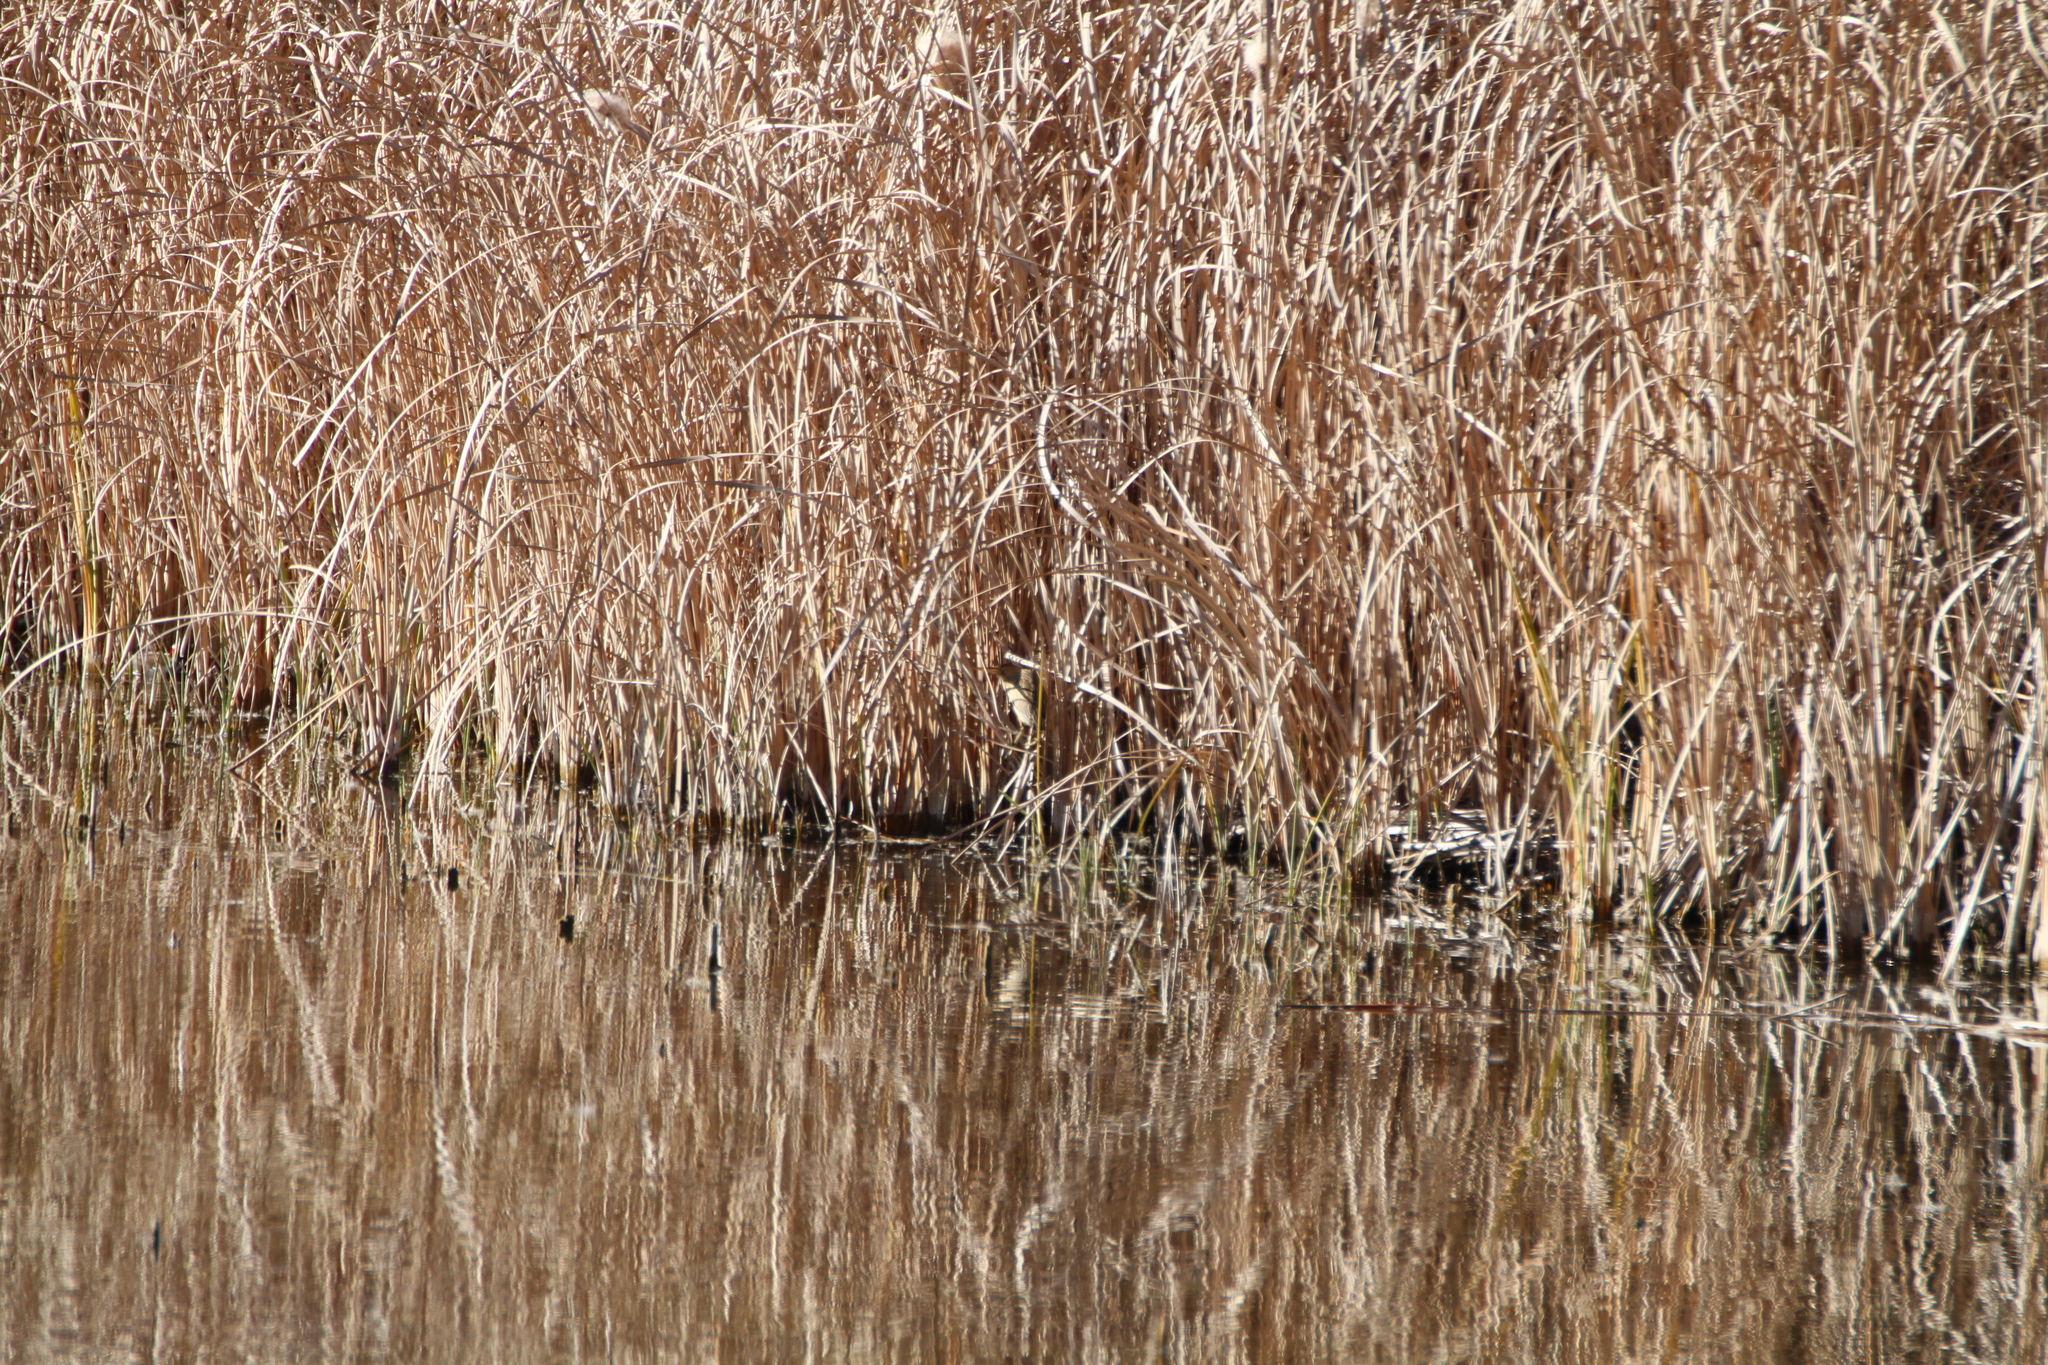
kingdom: Animalia
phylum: Chordata
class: Aves
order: Pelecaniformes
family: Ardeidae
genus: Ixobrychus
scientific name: Ixobrychus minutus
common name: Little bittern
